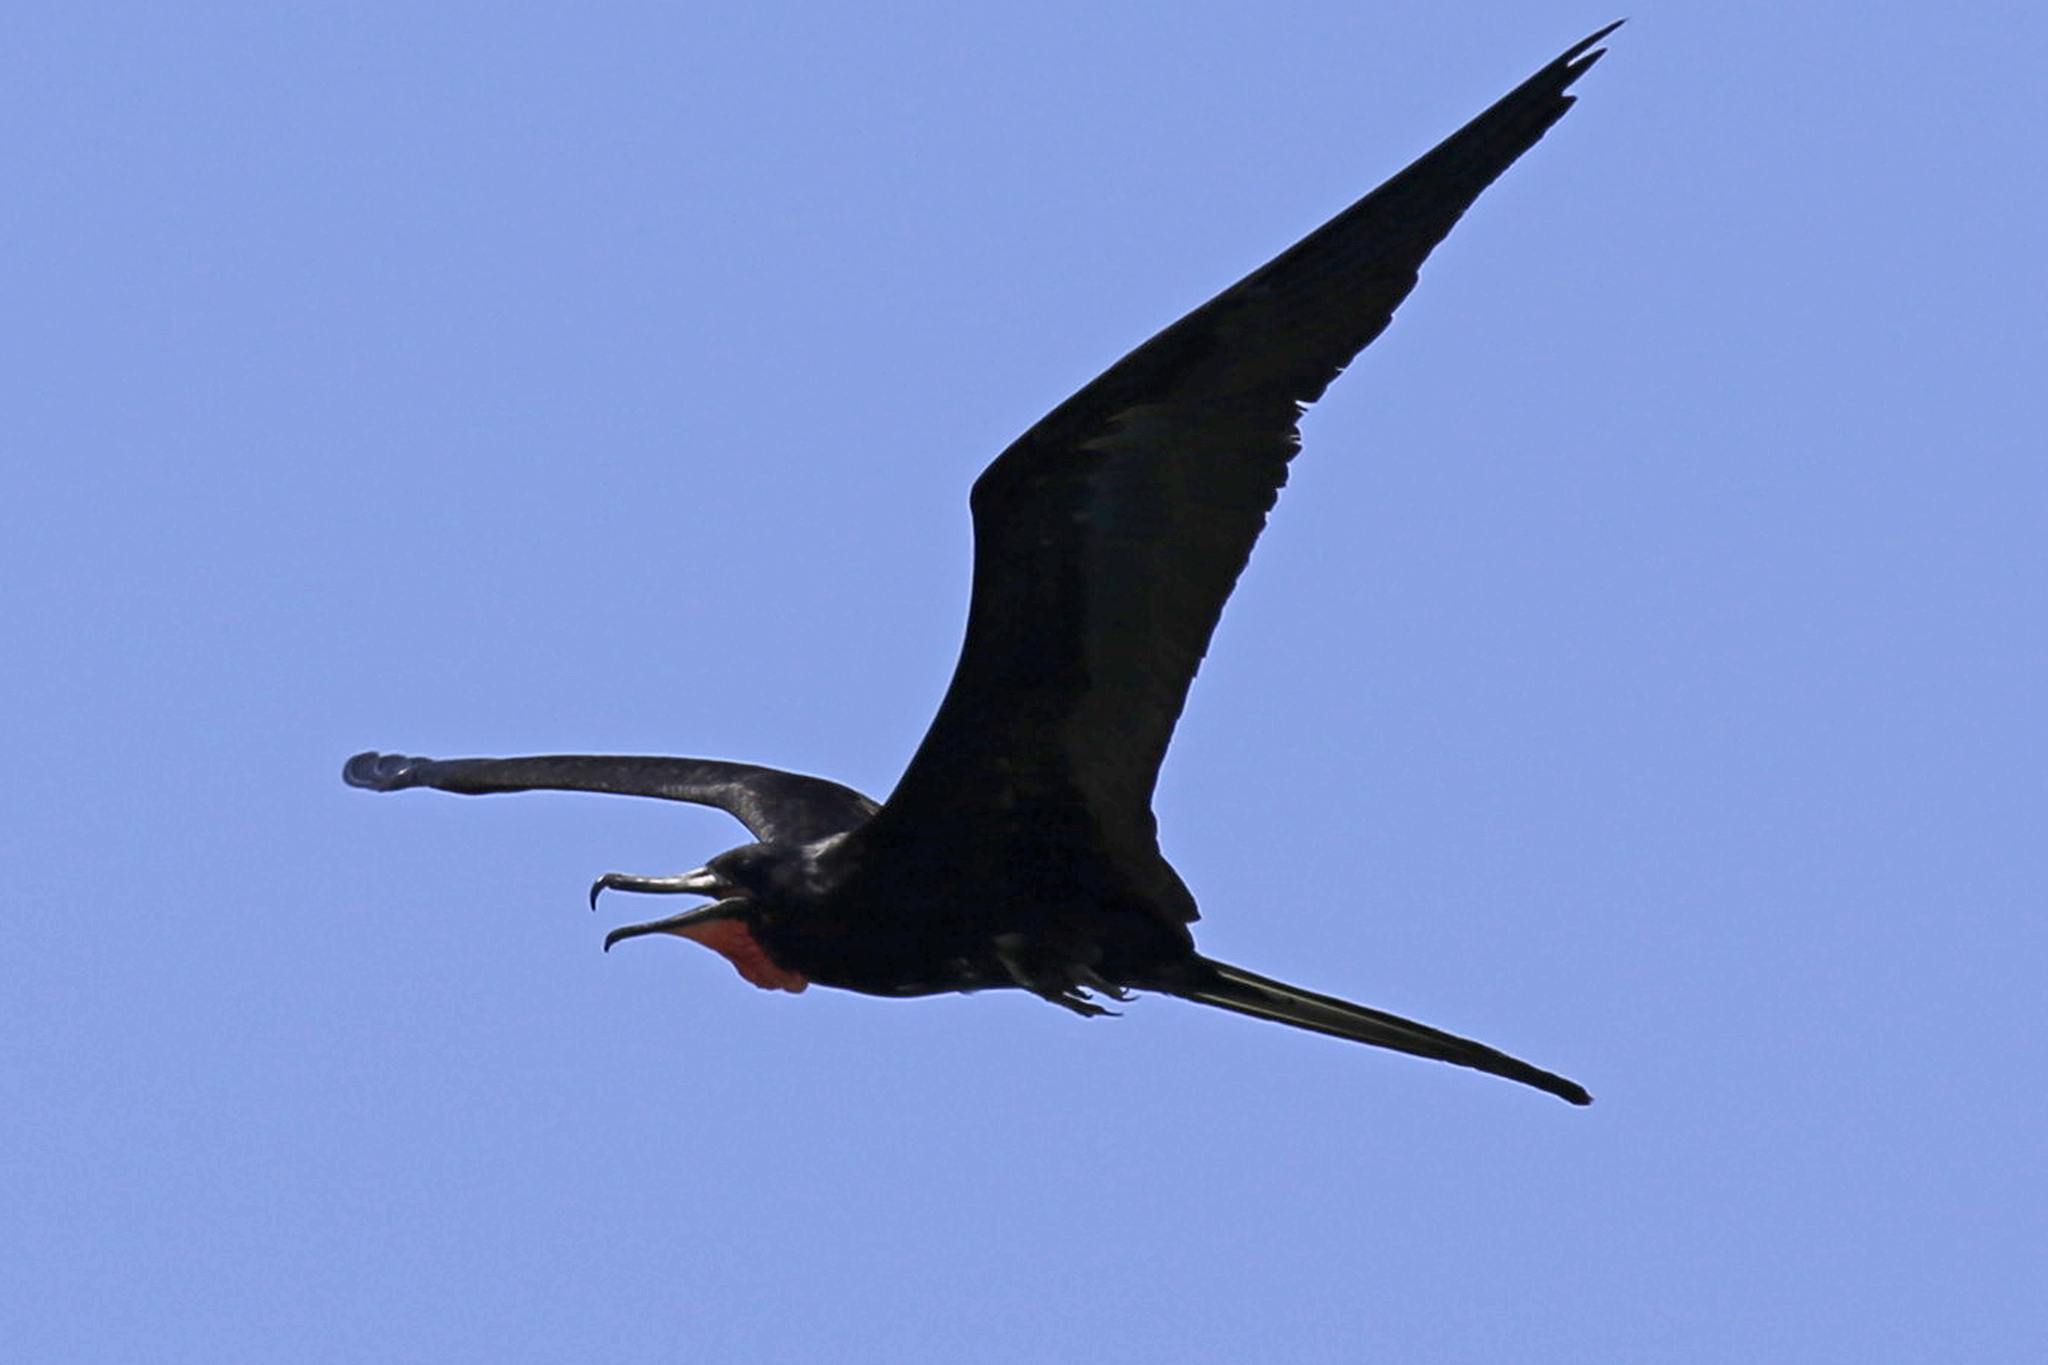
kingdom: Animalia
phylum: Chordata
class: Aves
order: Suliformes
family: Fregatidae
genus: Fregata
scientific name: Fregata magnificens
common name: Magnificent frigatebird
